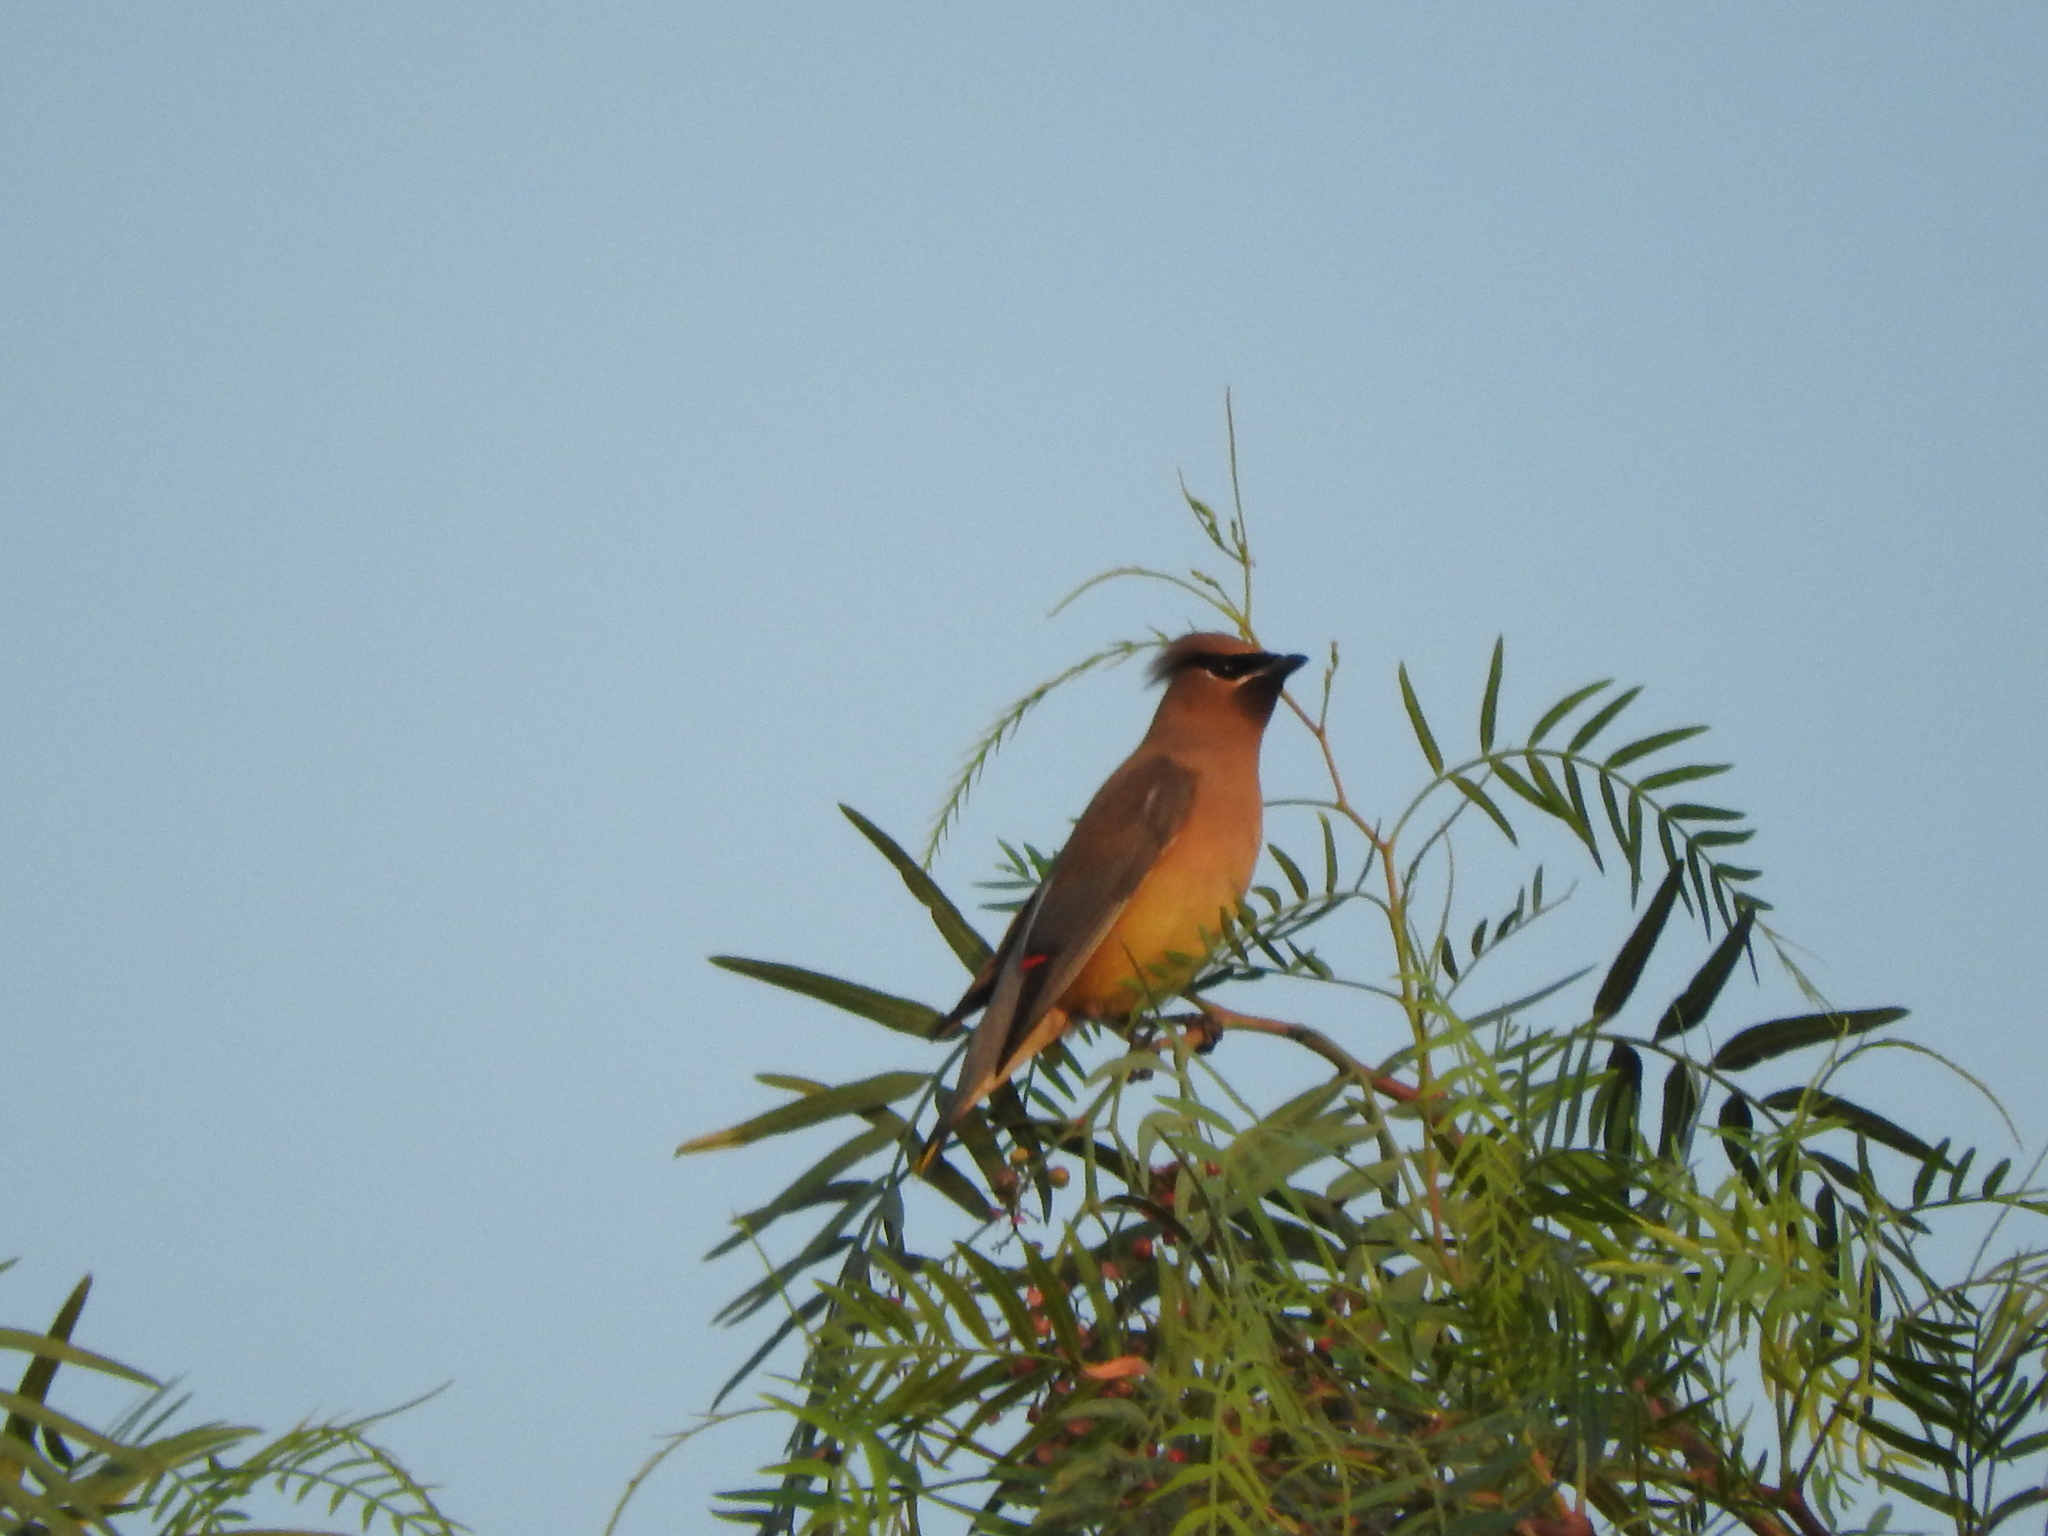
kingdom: Animalia
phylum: Chordata
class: Aves
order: Passeriformes
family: Bombycillidae
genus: Bombycilla
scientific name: Bombycilla cedrorum
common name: Cedar waxwing
